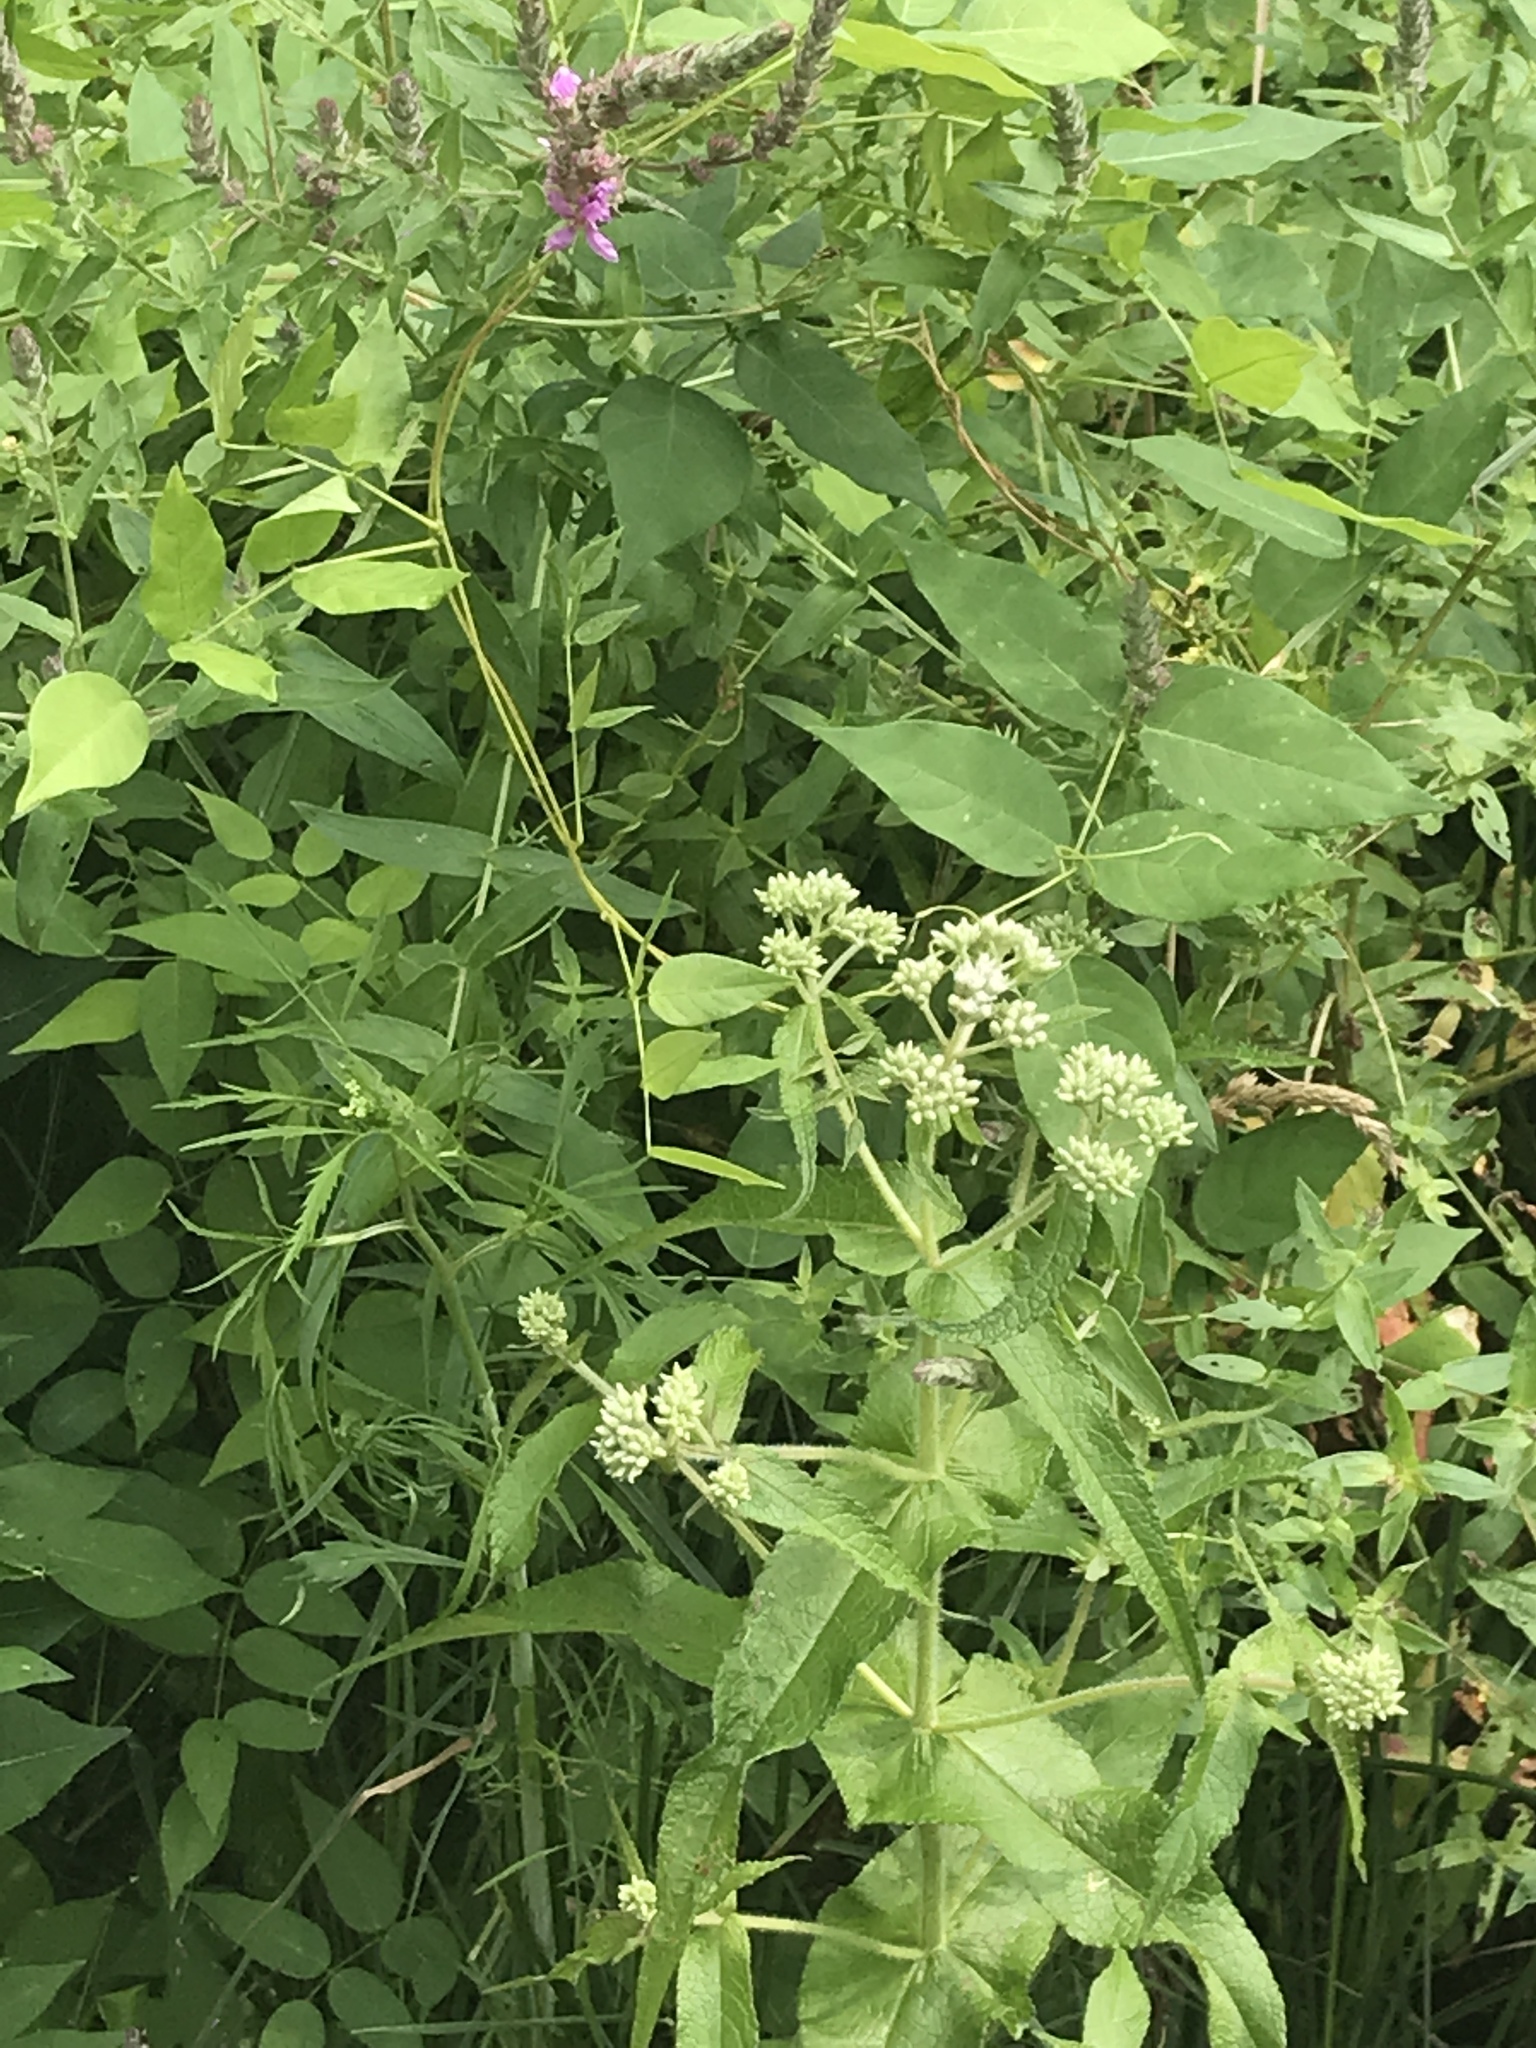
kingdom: Plantae
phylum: Tracheophyta
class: Magnoliopsida
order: Asterales
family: Asteraceae
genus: Eupatorium
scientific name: Eupatorium perfoliatum
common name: Boneset
